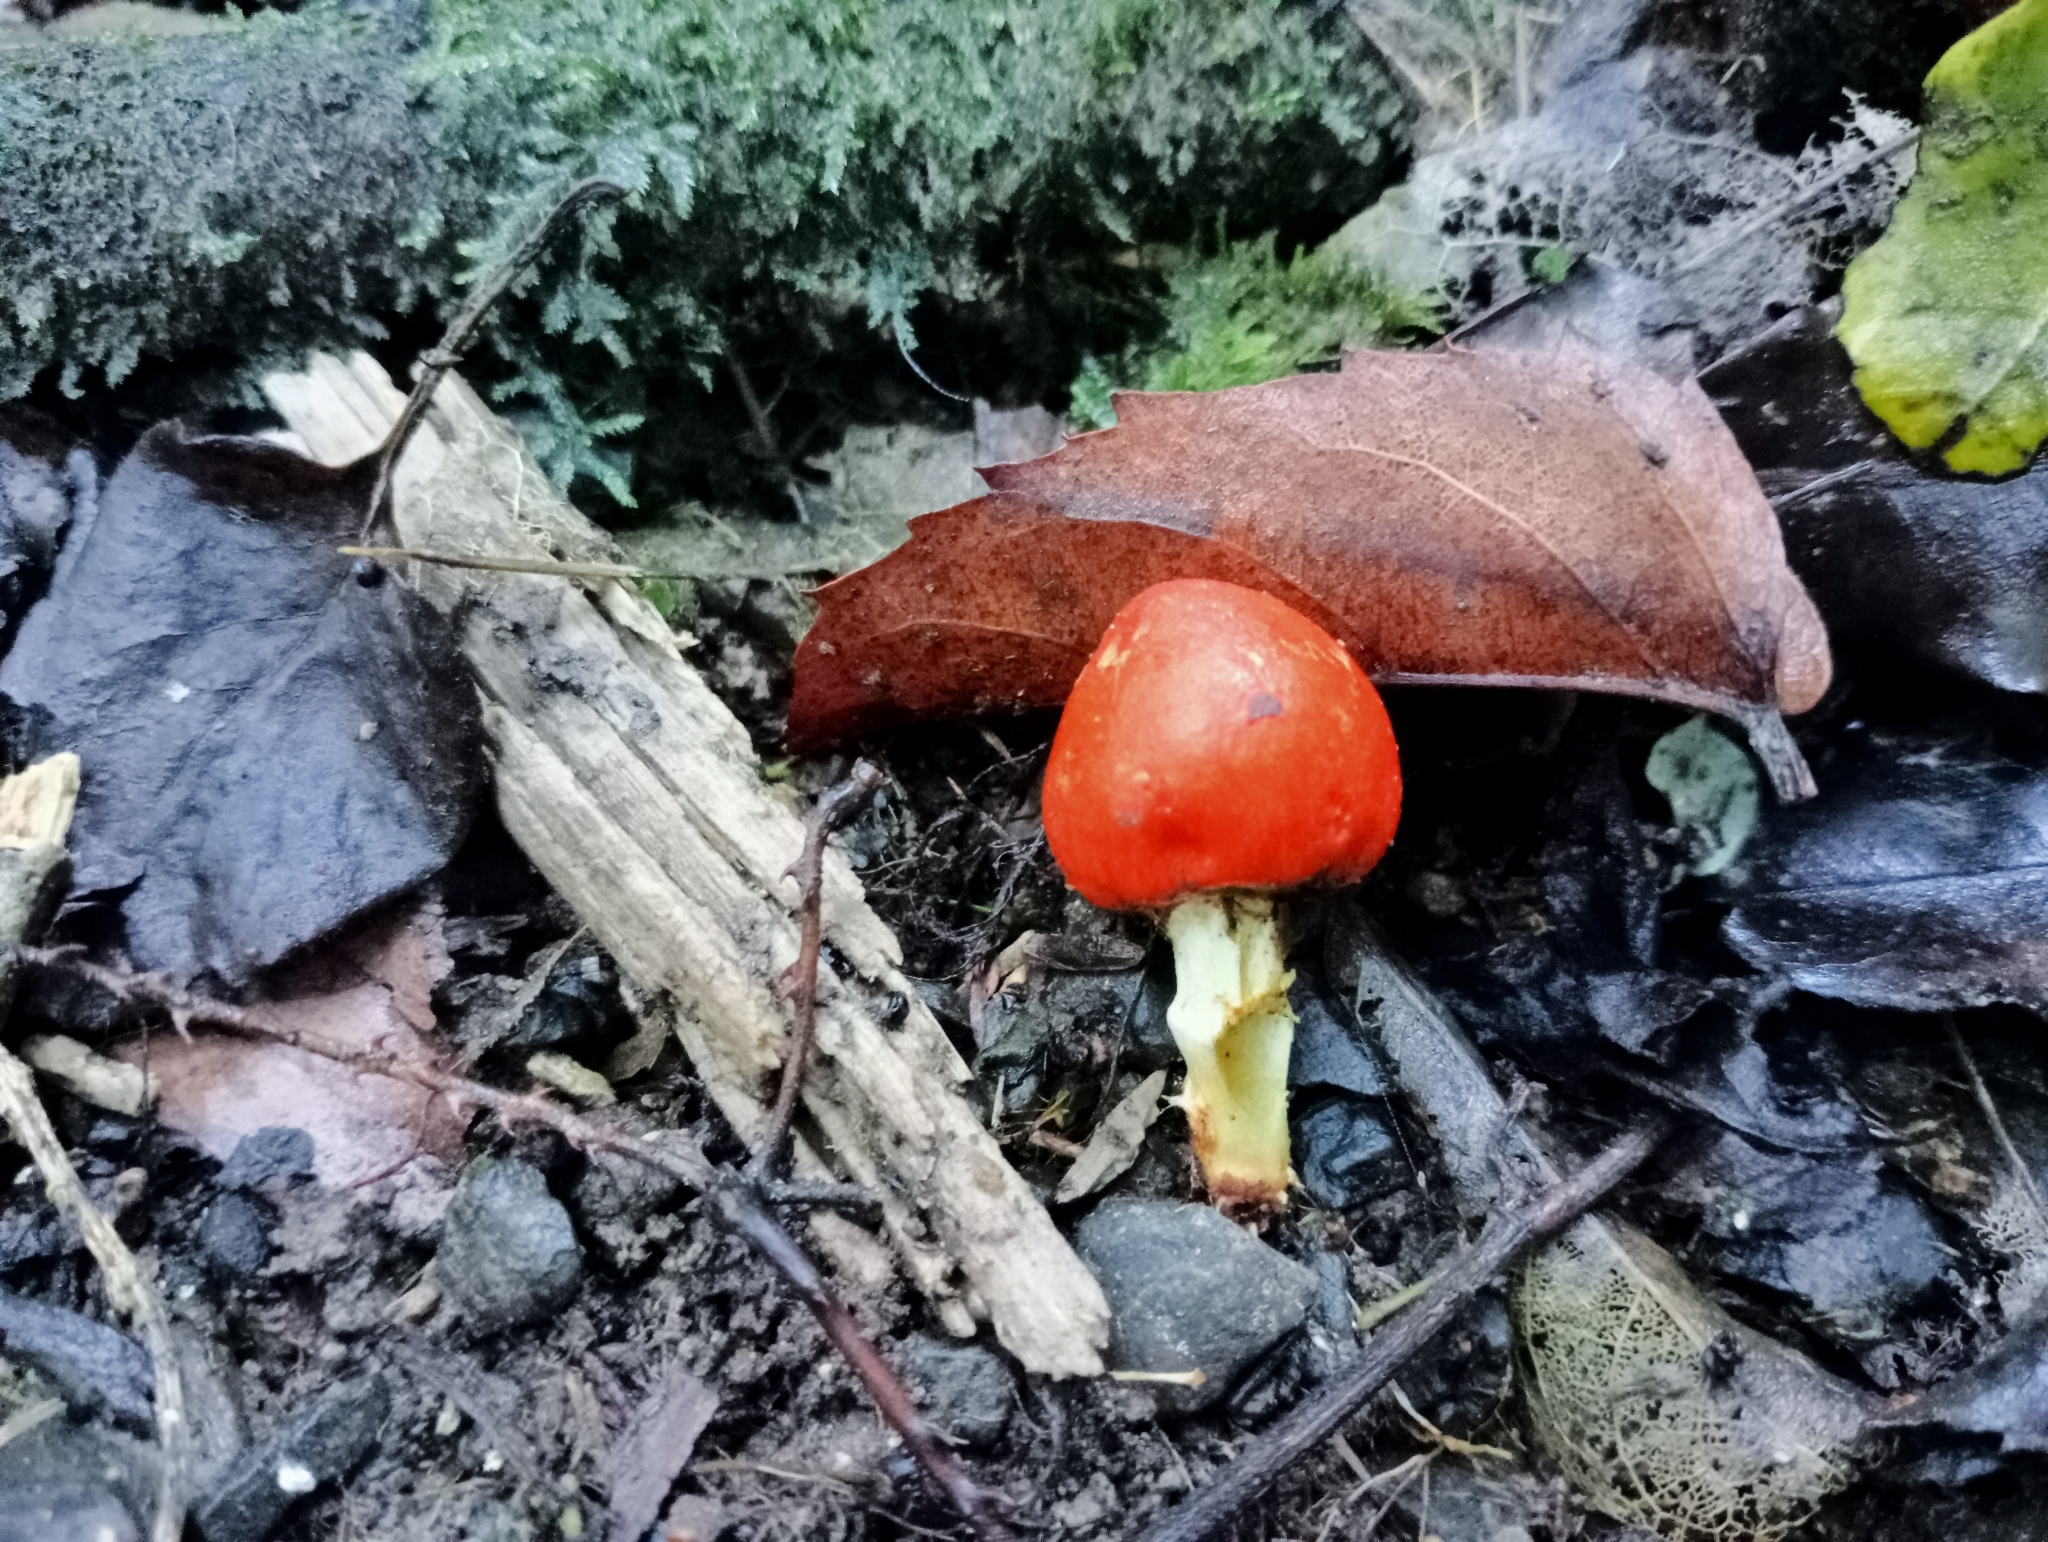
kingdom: Fungi
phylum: Basidiomycota
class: Agaricomycetes
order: Agaricales
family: Strophariaceae
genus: Leratiomyces
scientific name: Leratiomyces erythrocephalus
